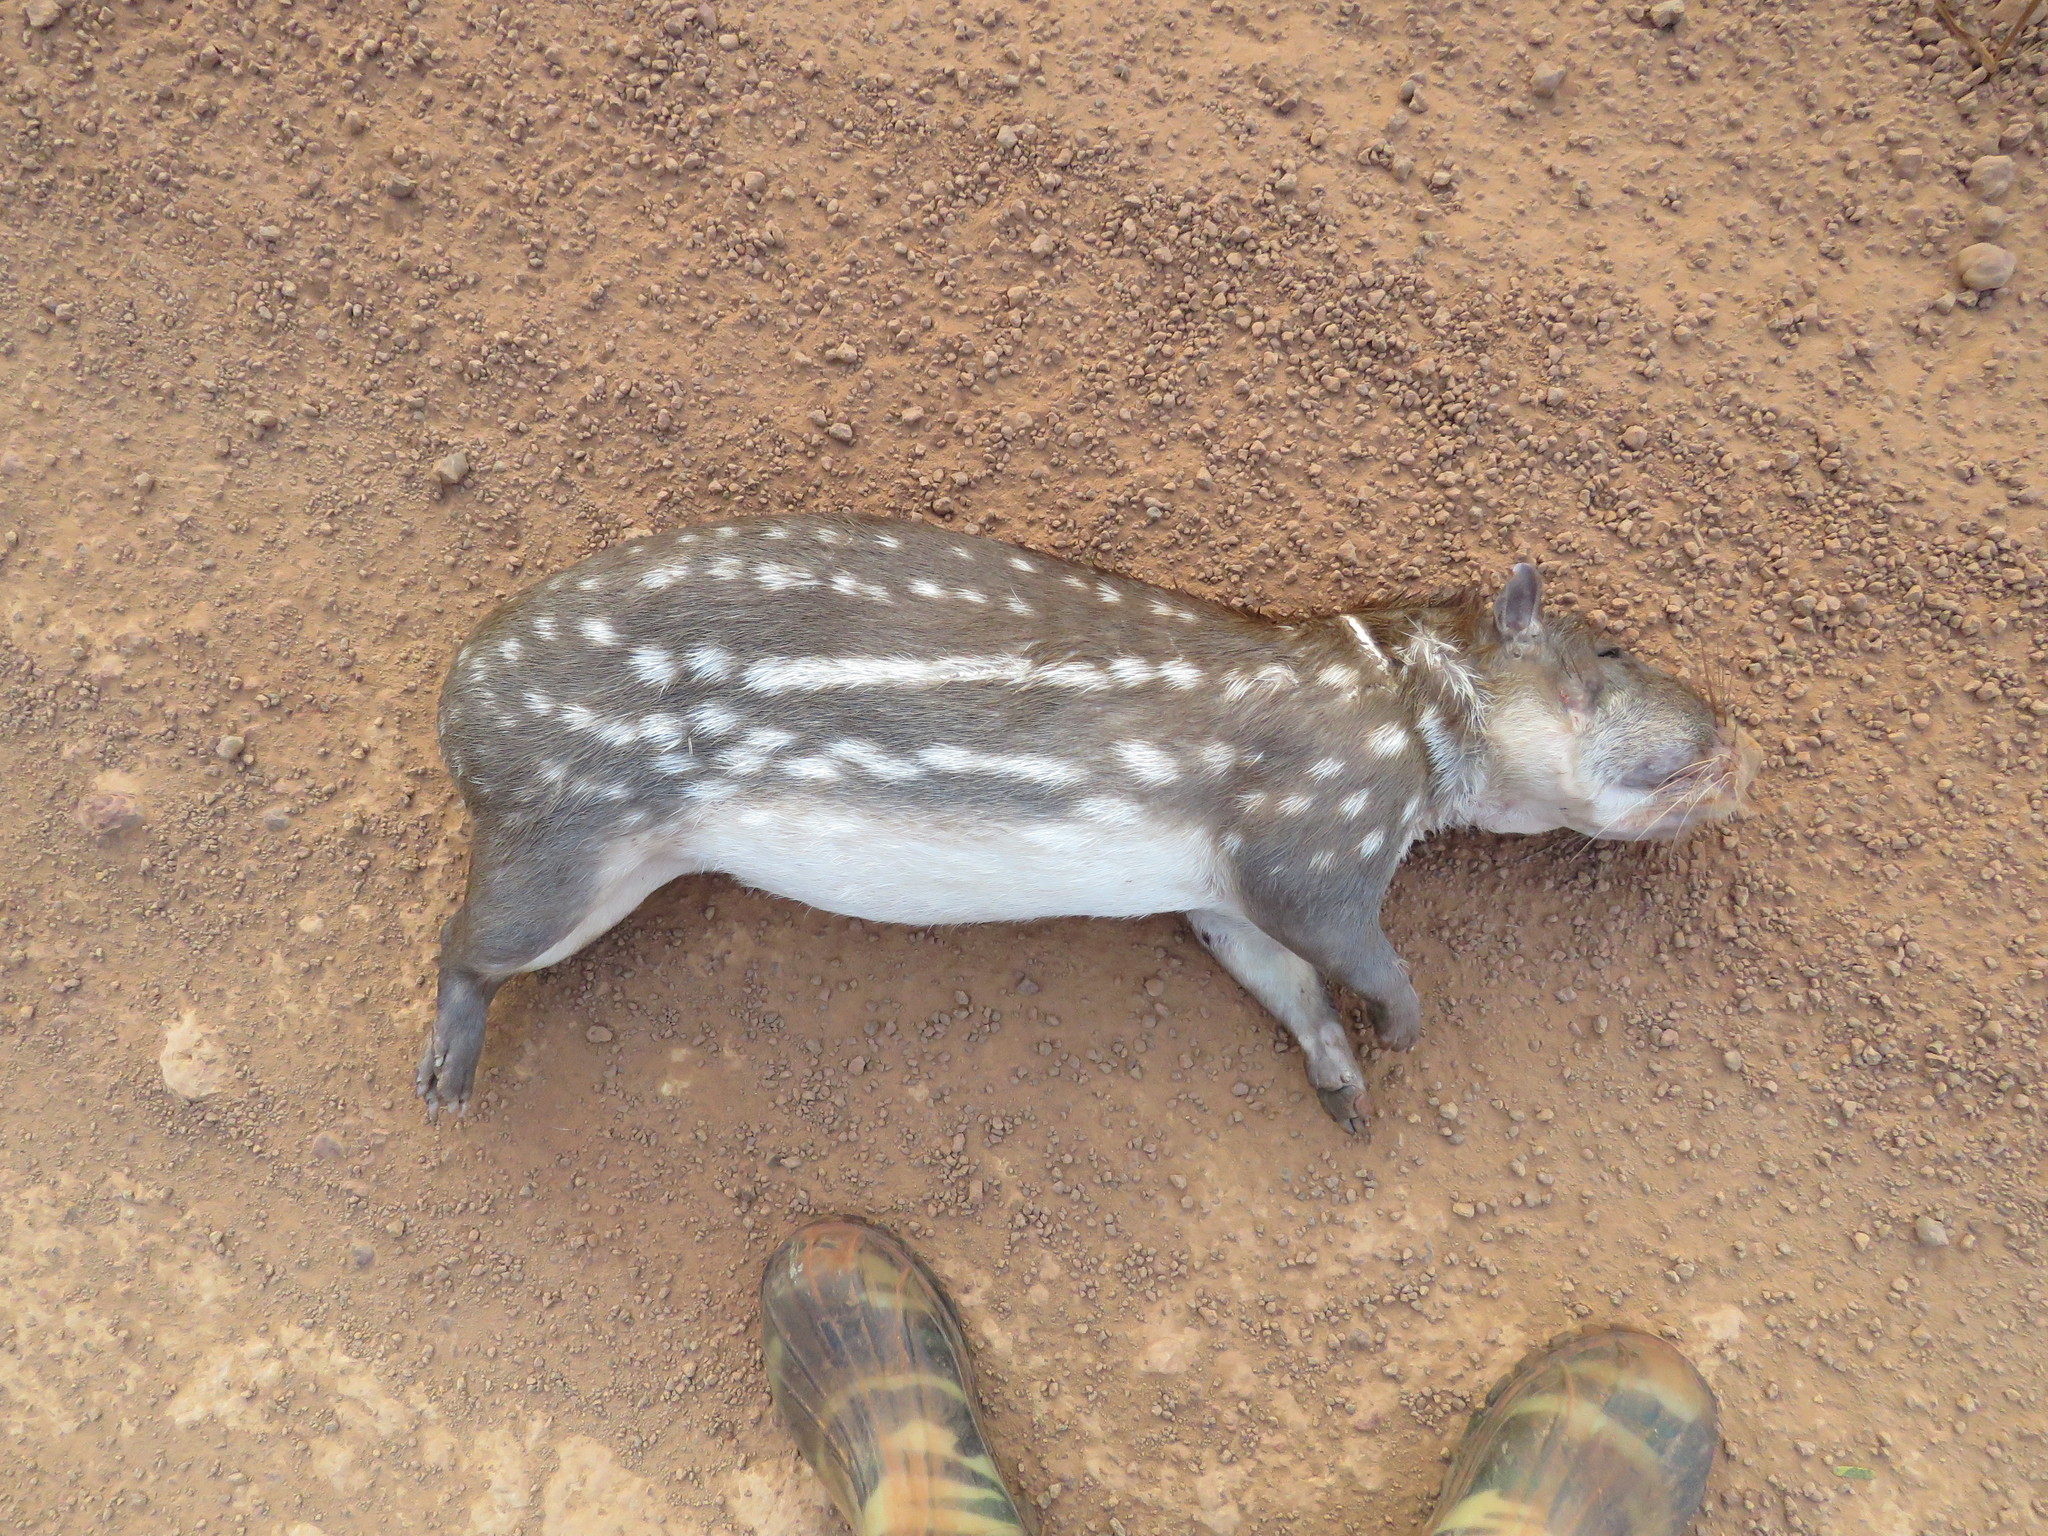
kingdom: Animalia
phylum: Chordata
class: Mammalia
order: Rodentia
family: Cuniculidae
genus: Cuniculus
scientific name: Cuniculus paca
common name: Lowland paca
